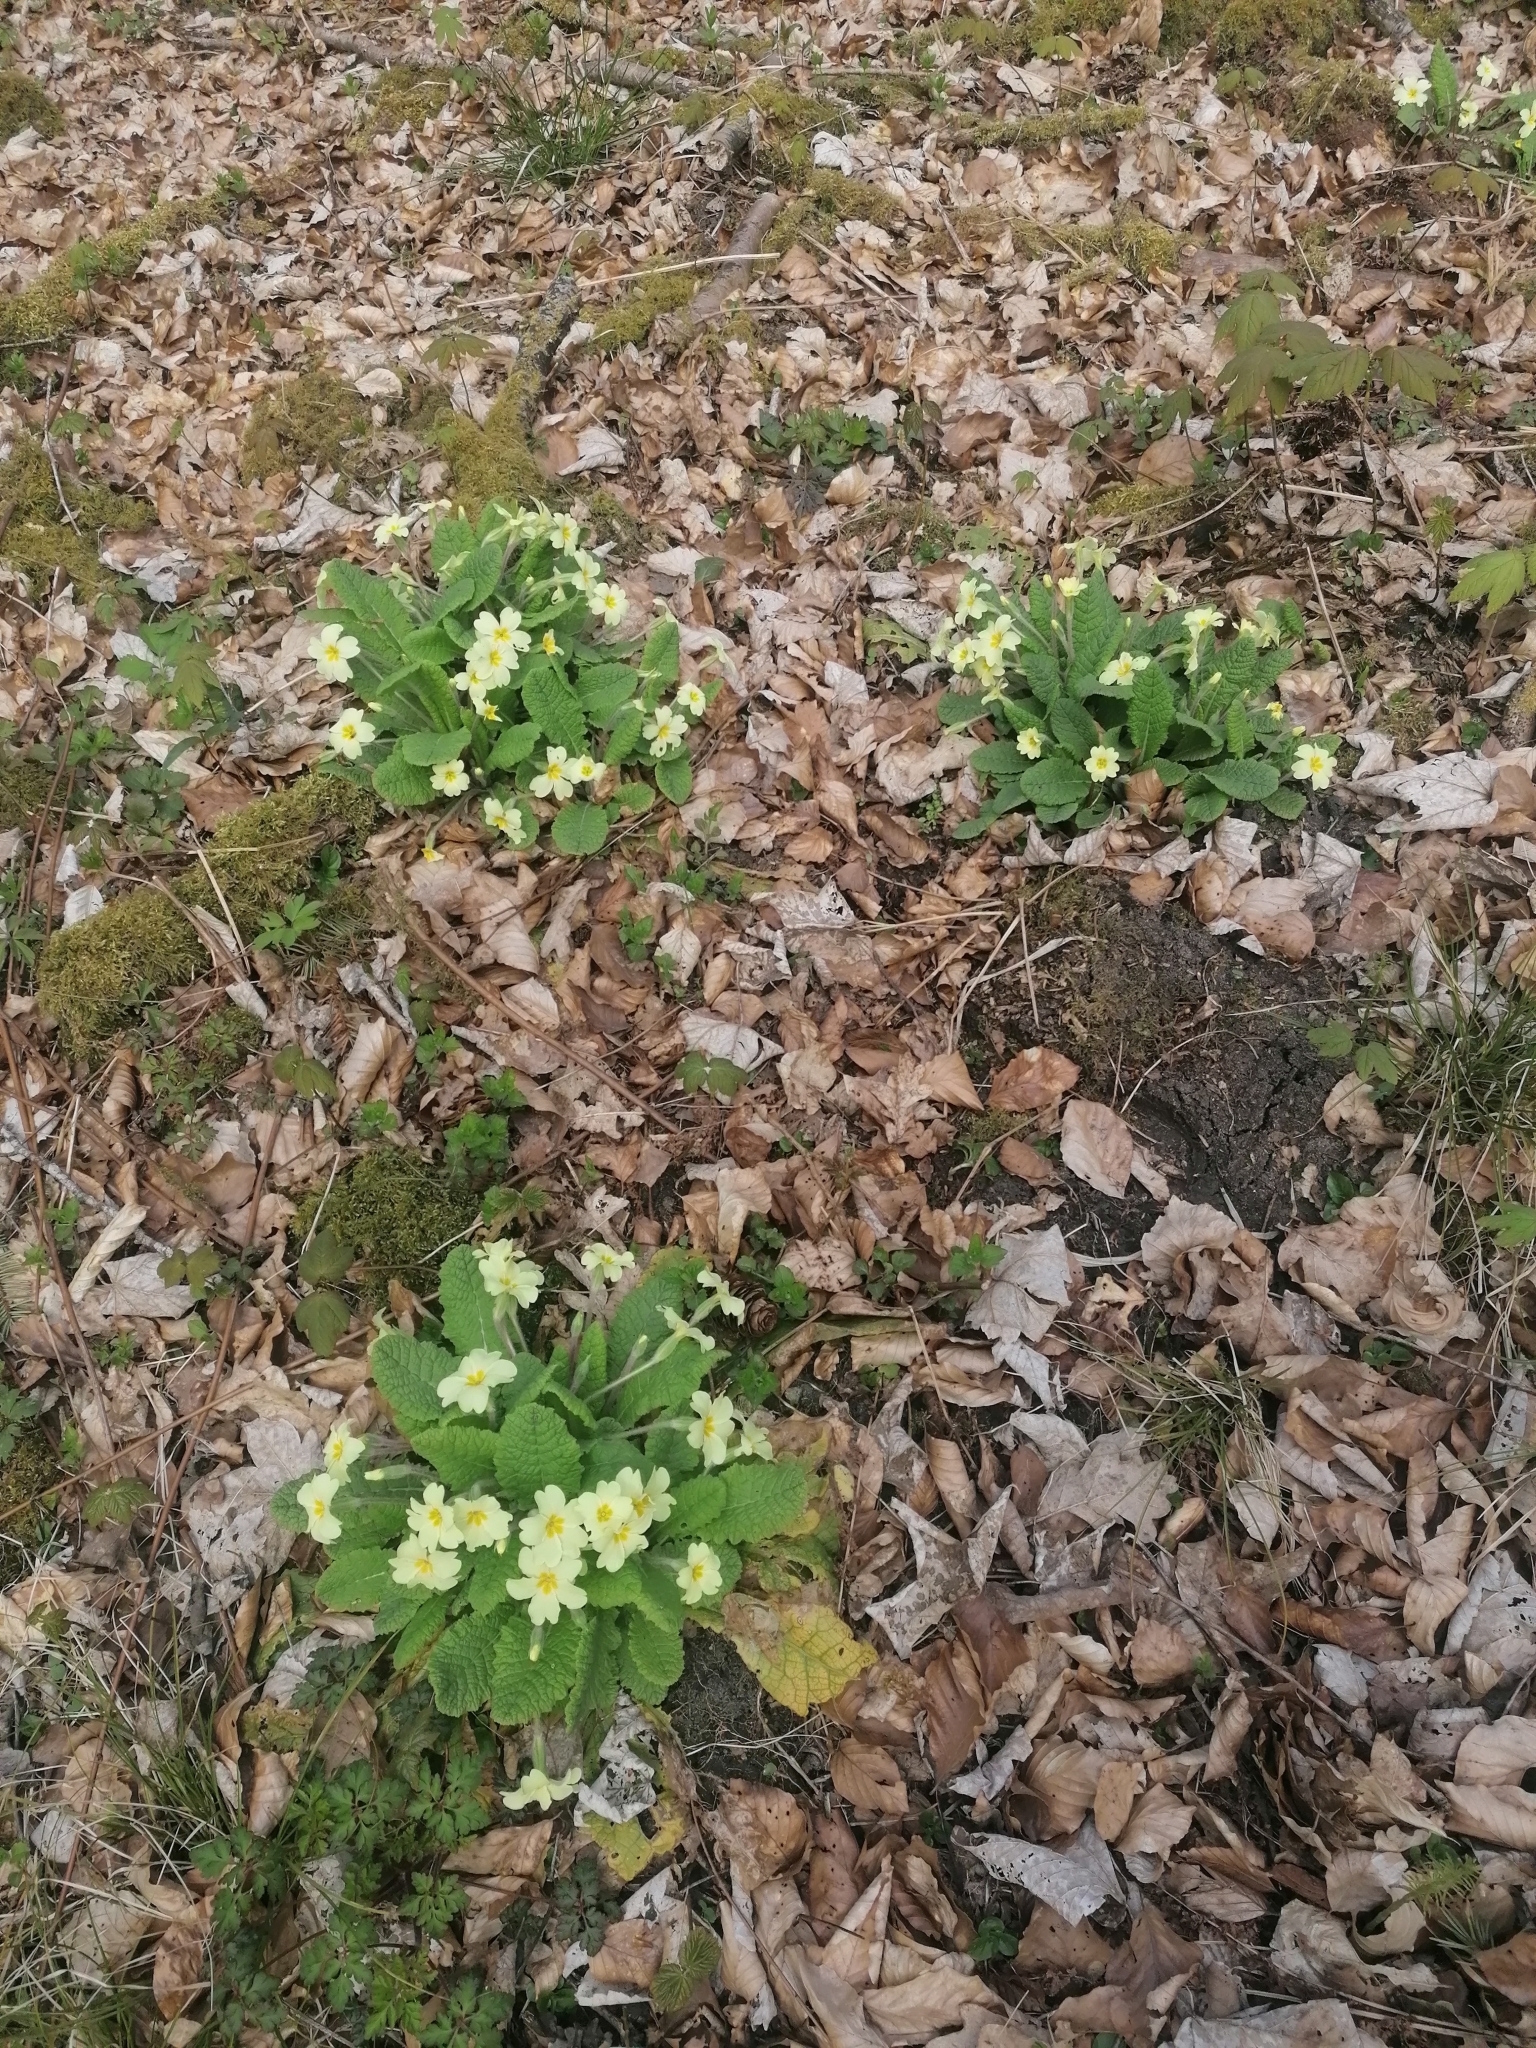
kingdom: Plantae
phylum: Tracheophyta
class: Magnoliopsida
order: Ericales
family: Primulaceae
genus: Primula
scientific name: Primula vulgaris
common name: Primrose
